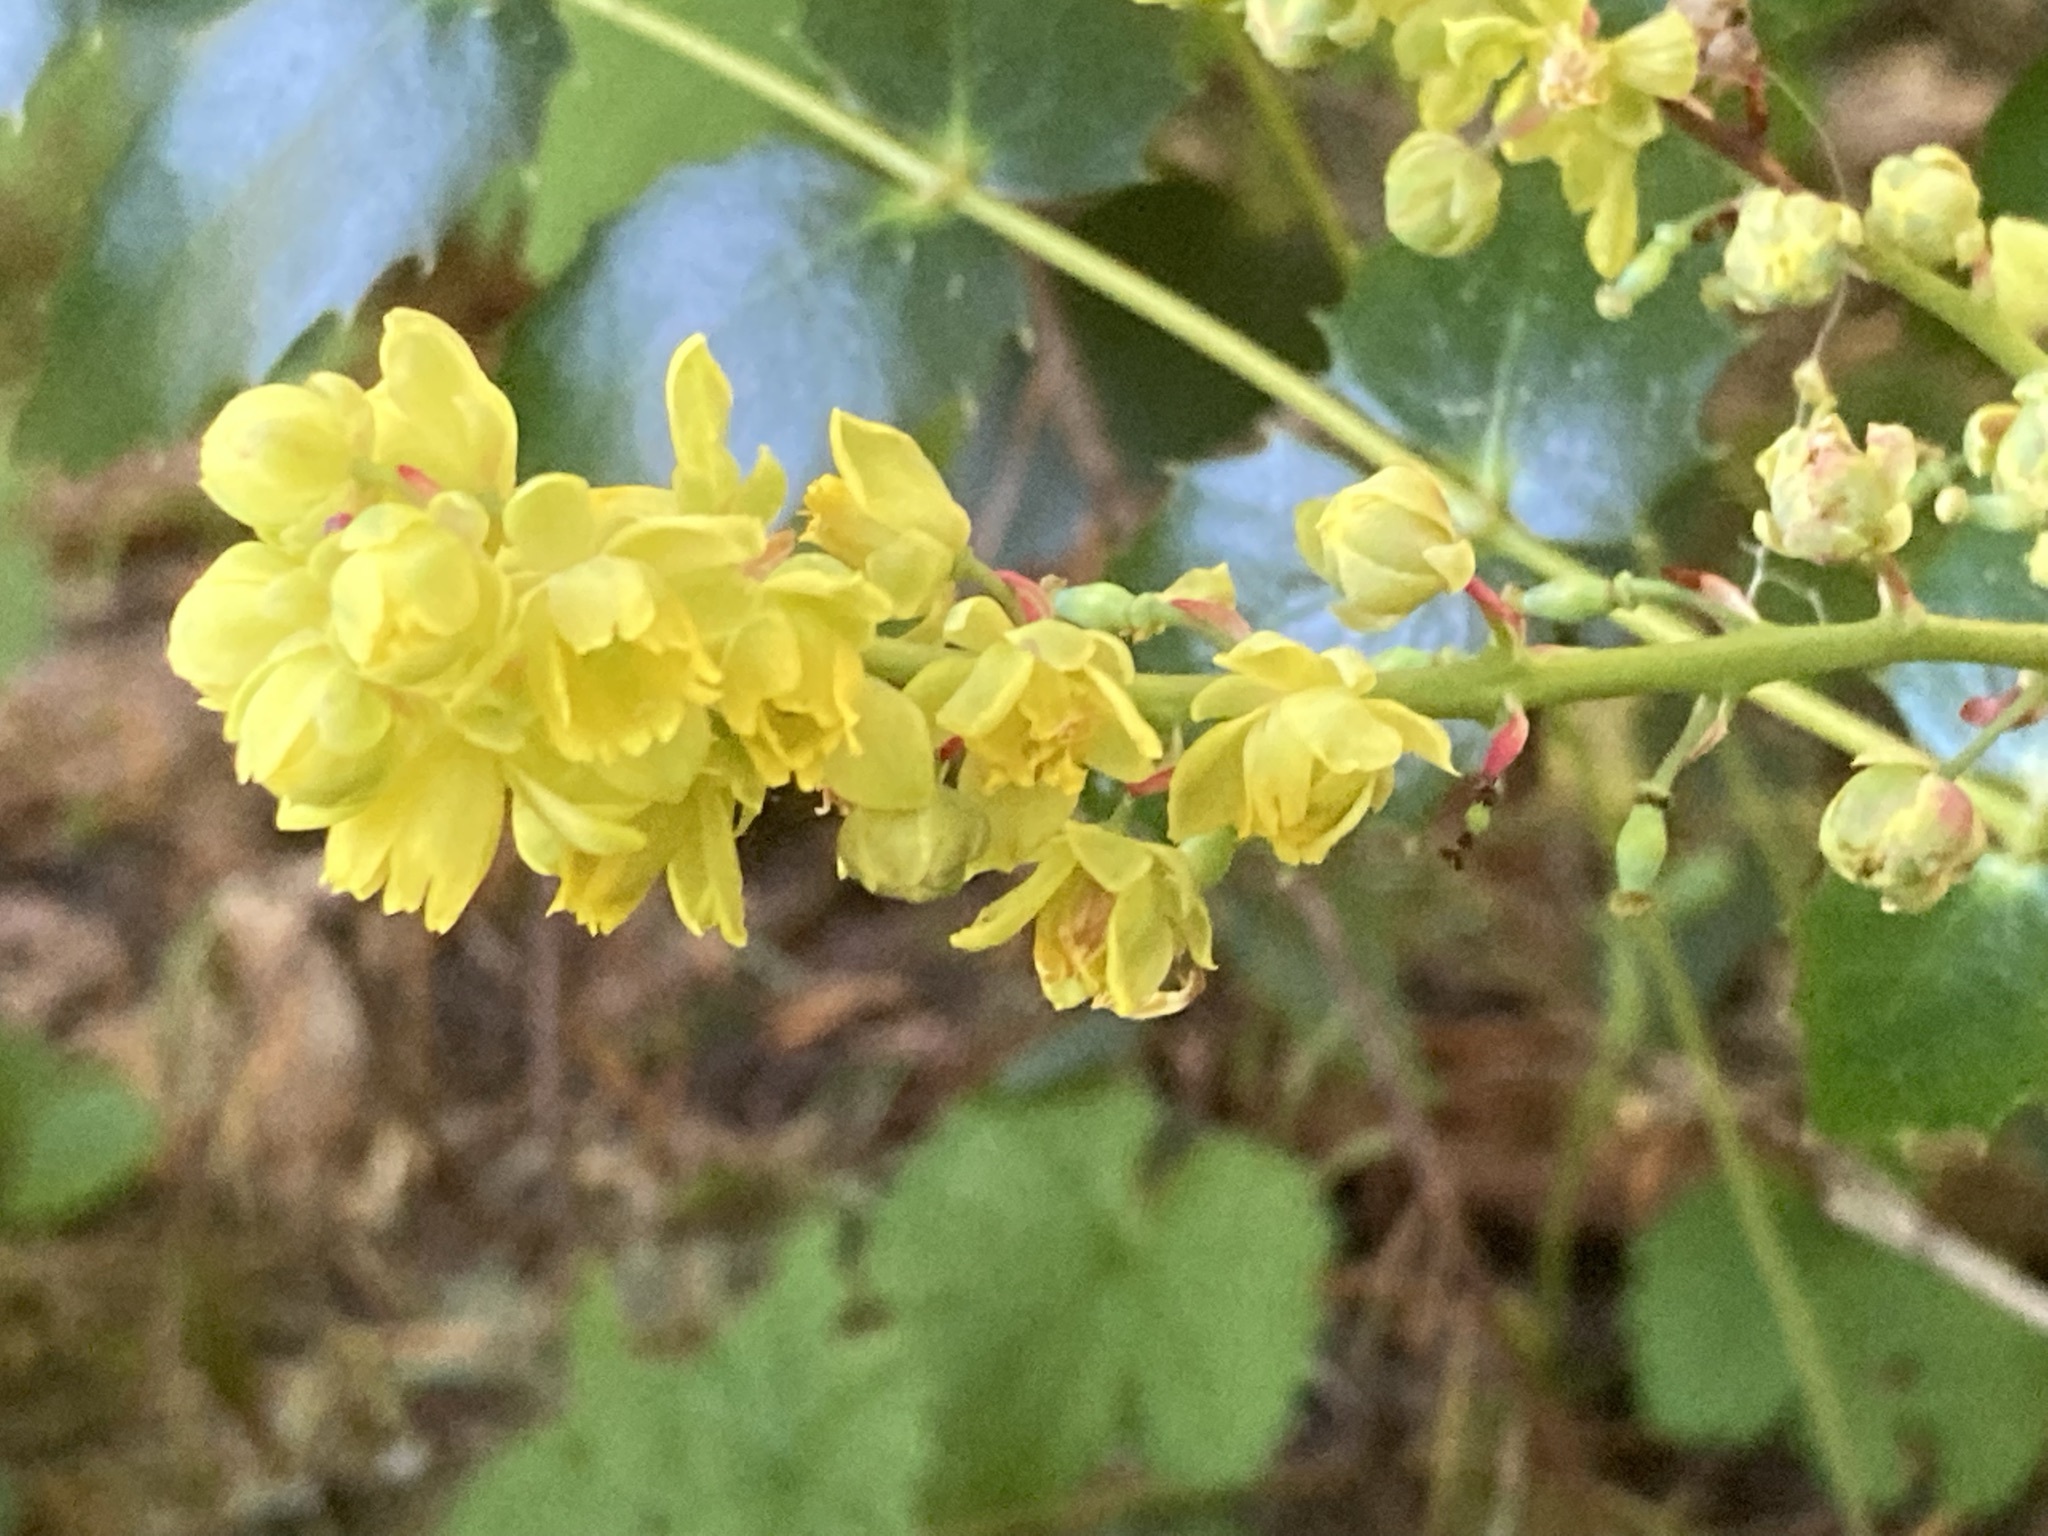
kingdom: Plantae
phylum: Tracheophyta
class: Magnoliopsida
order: Ranunculales
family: Berberidaceae
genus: Mahonia
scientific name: Mahonia nervosa
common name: Cascade oregon-grape
